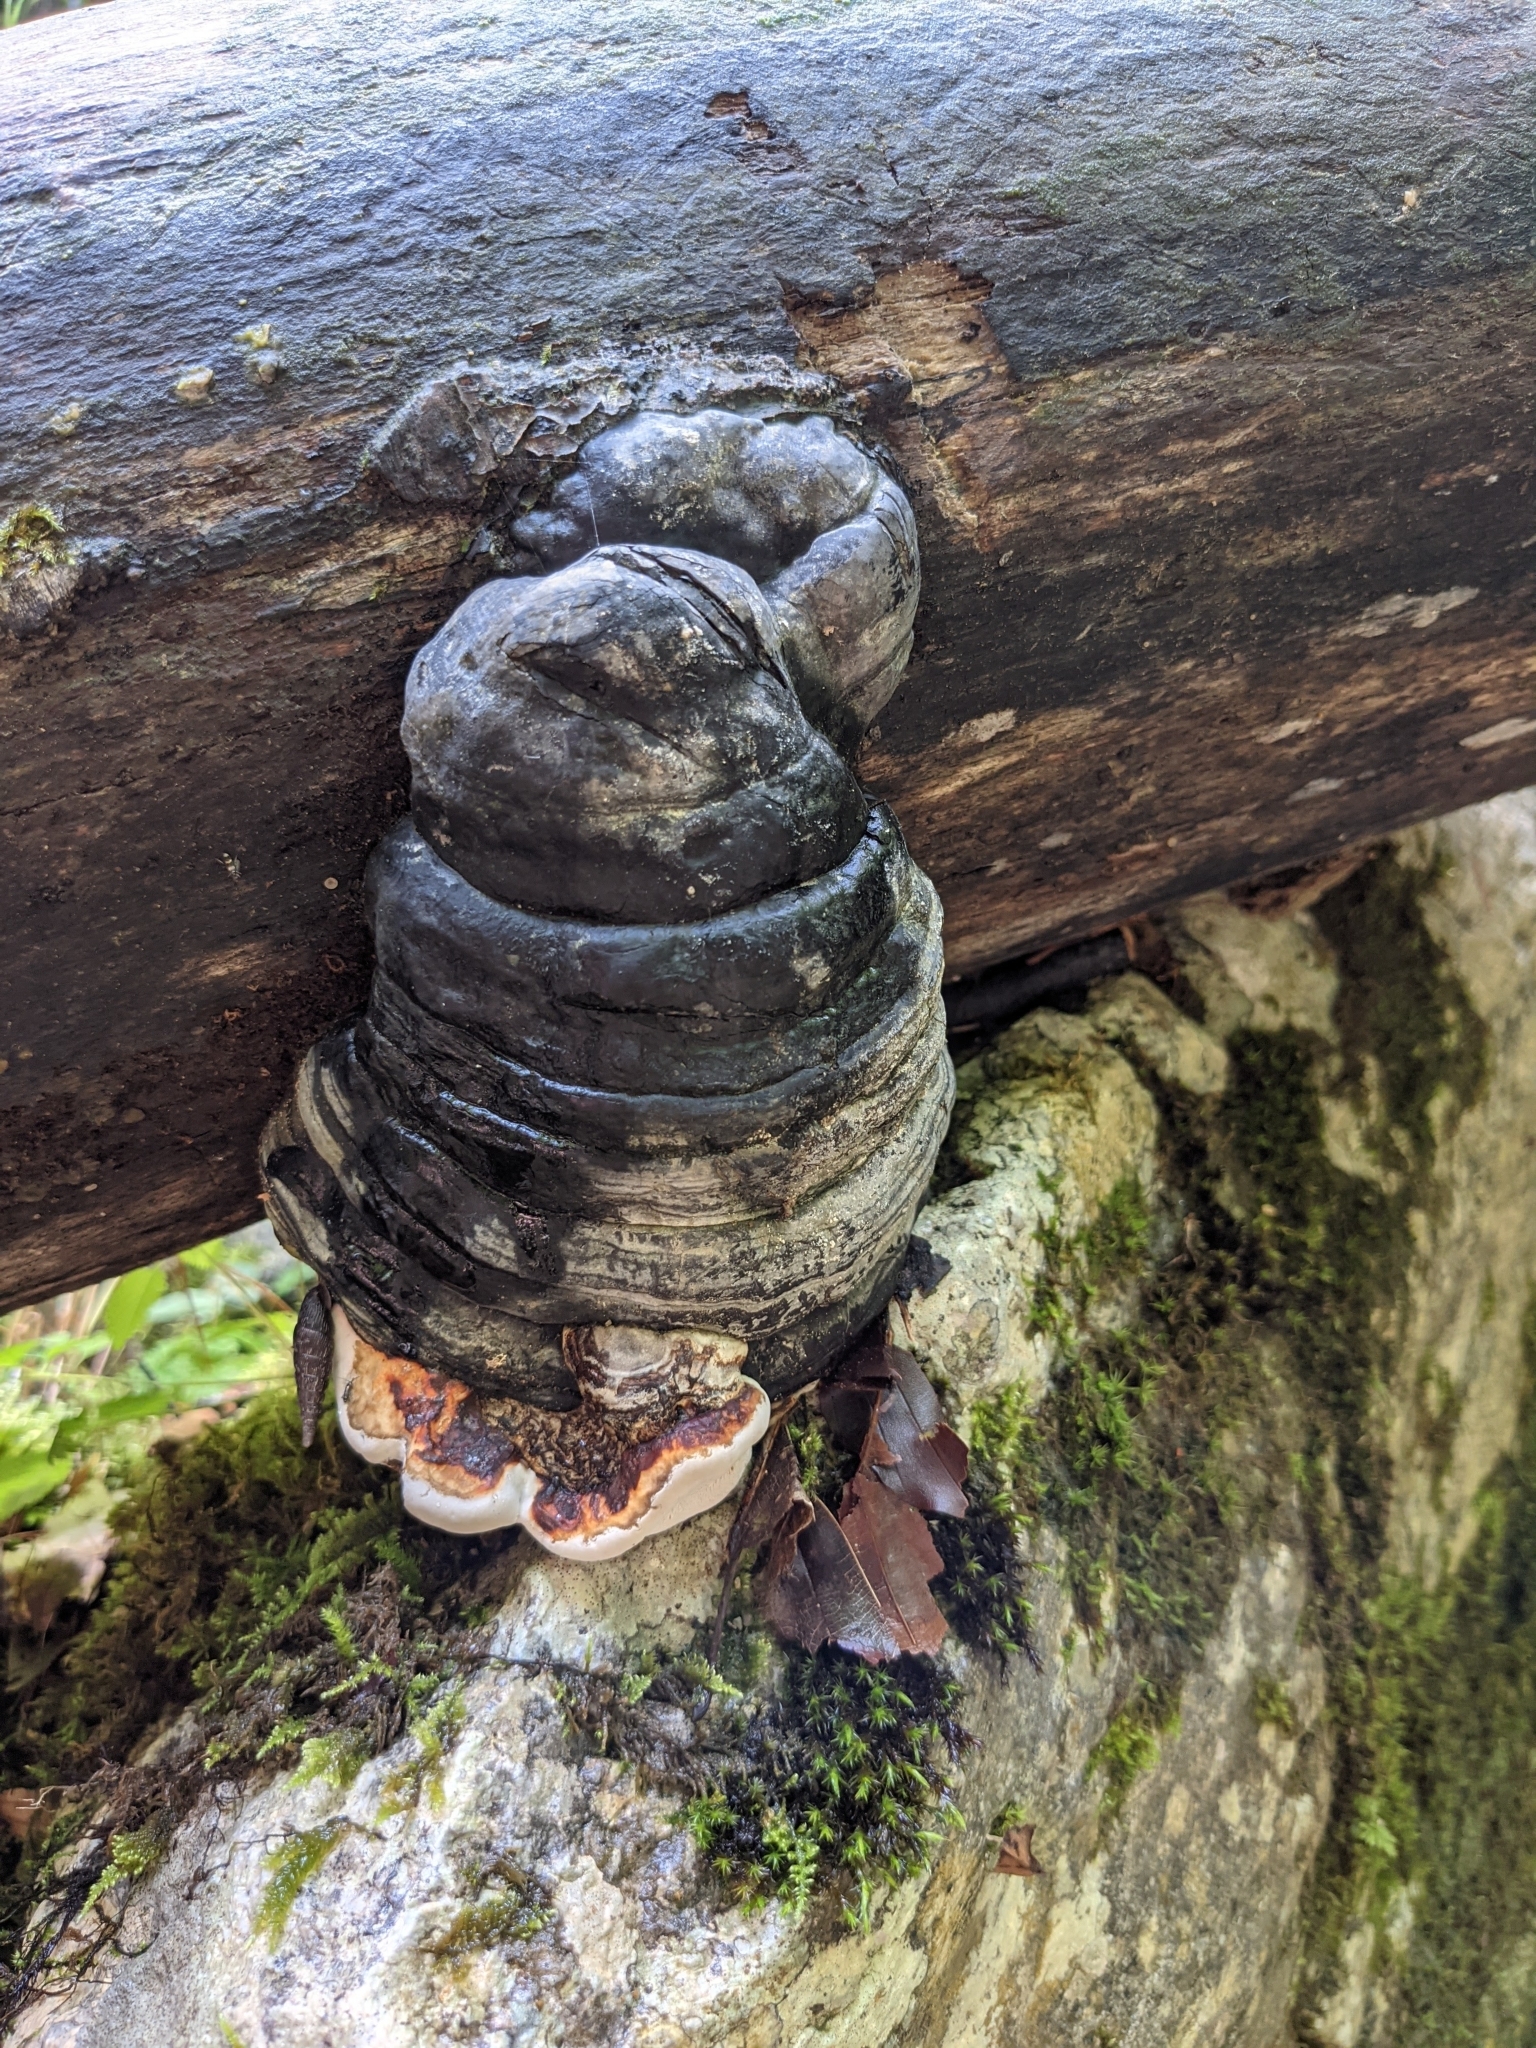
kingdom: Fungi
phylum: Basidiomycota
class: Agaricomycetes
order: Polyporales
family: Fomitopsidaceae
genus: Fomitopsis
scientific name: Fomitopsis pinicola
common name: Red-belted bracket
